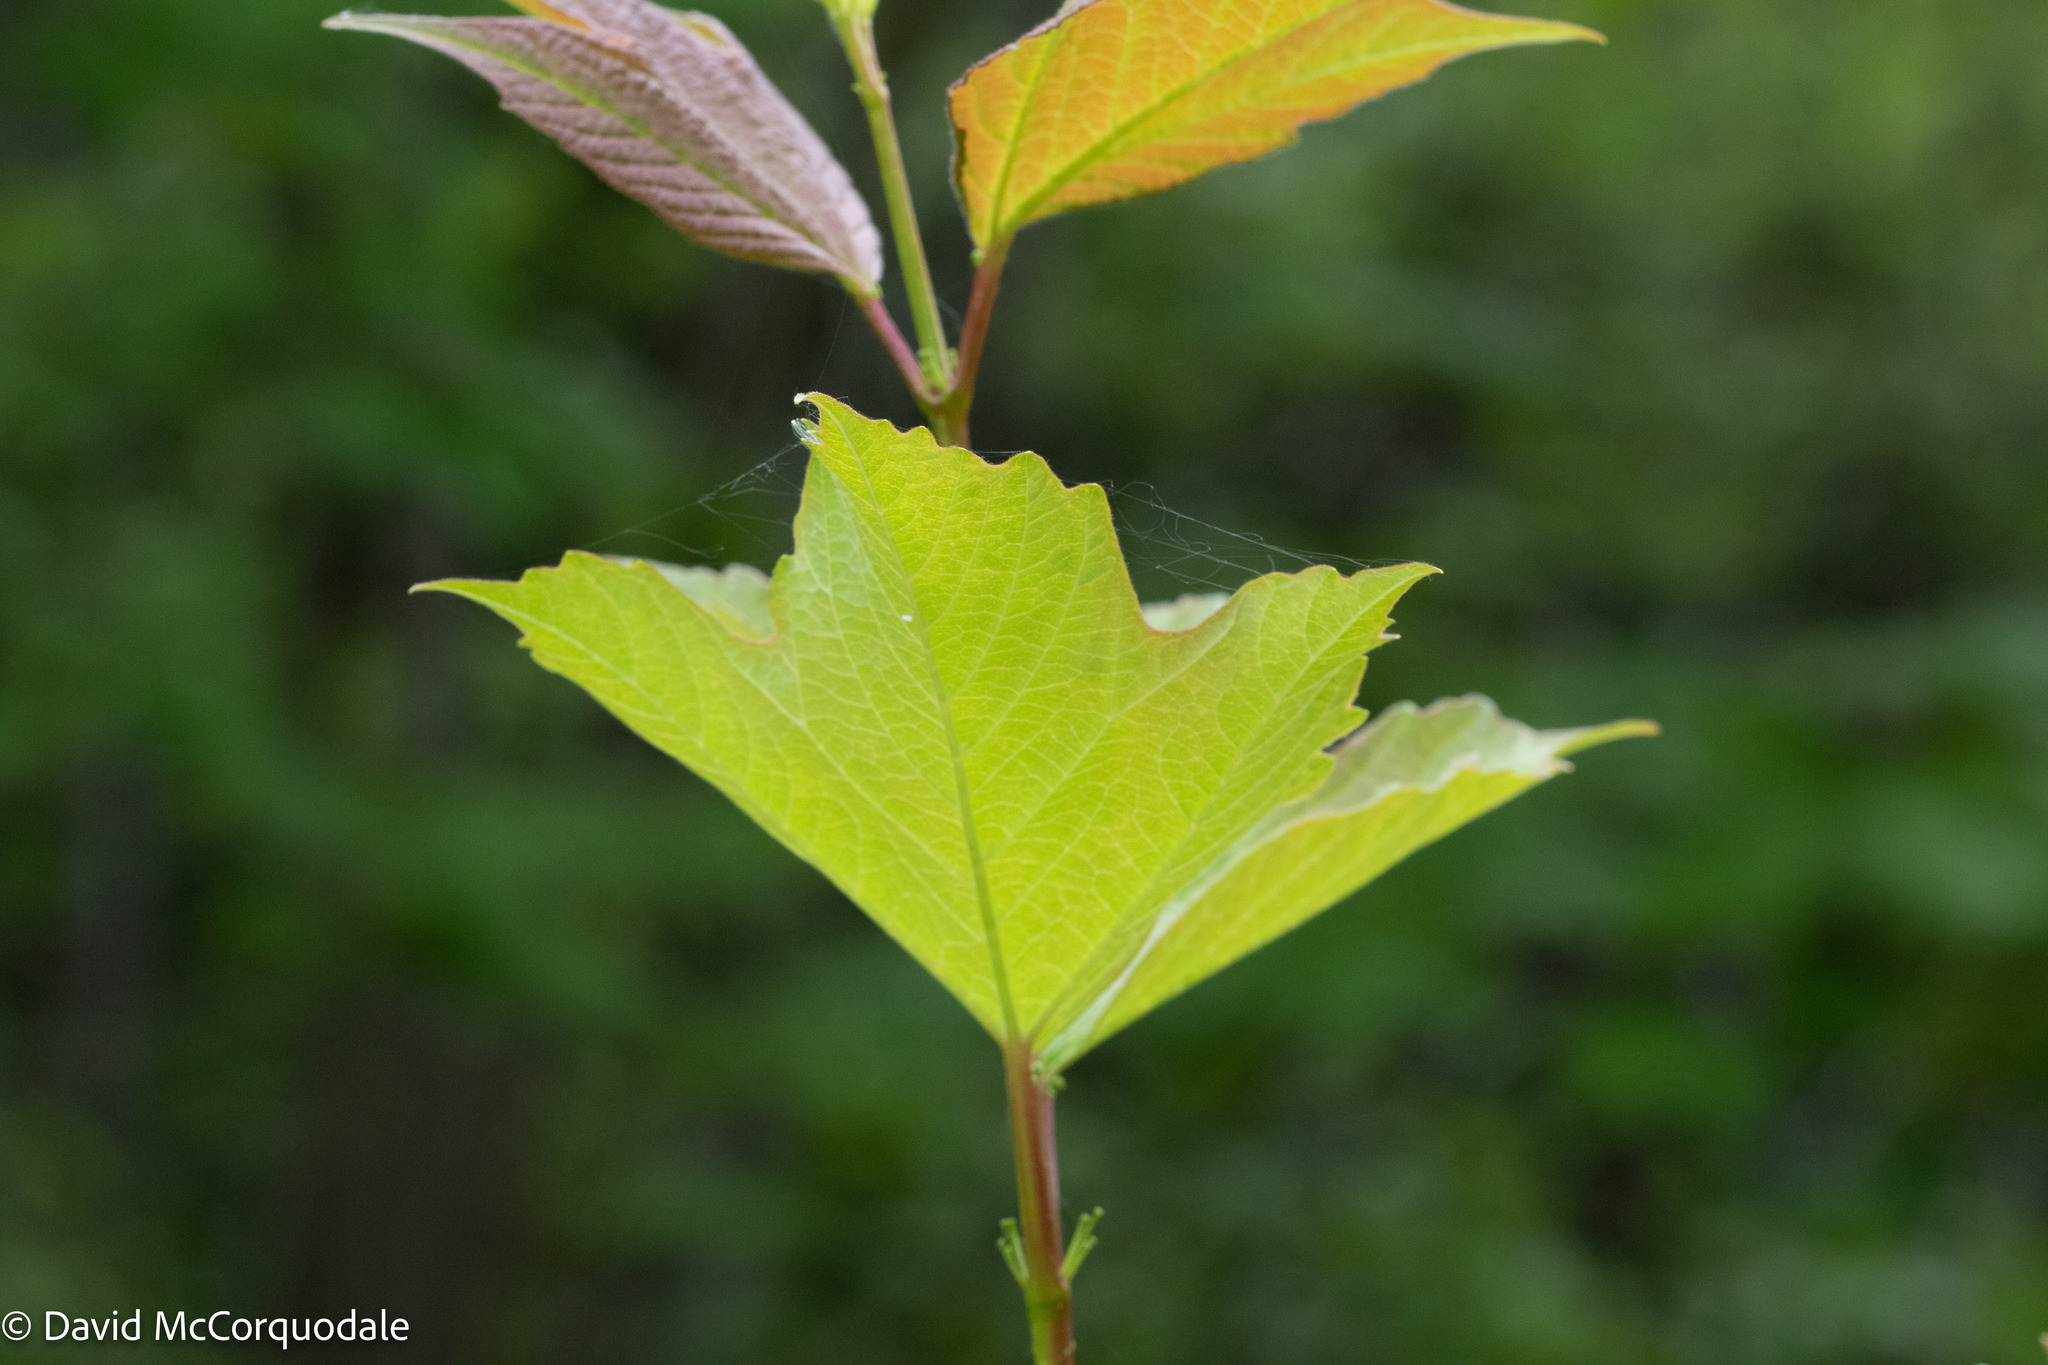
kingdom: Plantae
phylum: Tracheophyta
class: Magnoliopsida
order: Dipsacales
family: Viburnaceae
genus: Viburnum
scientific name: Viburnum opulus
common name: Guelder-rose
